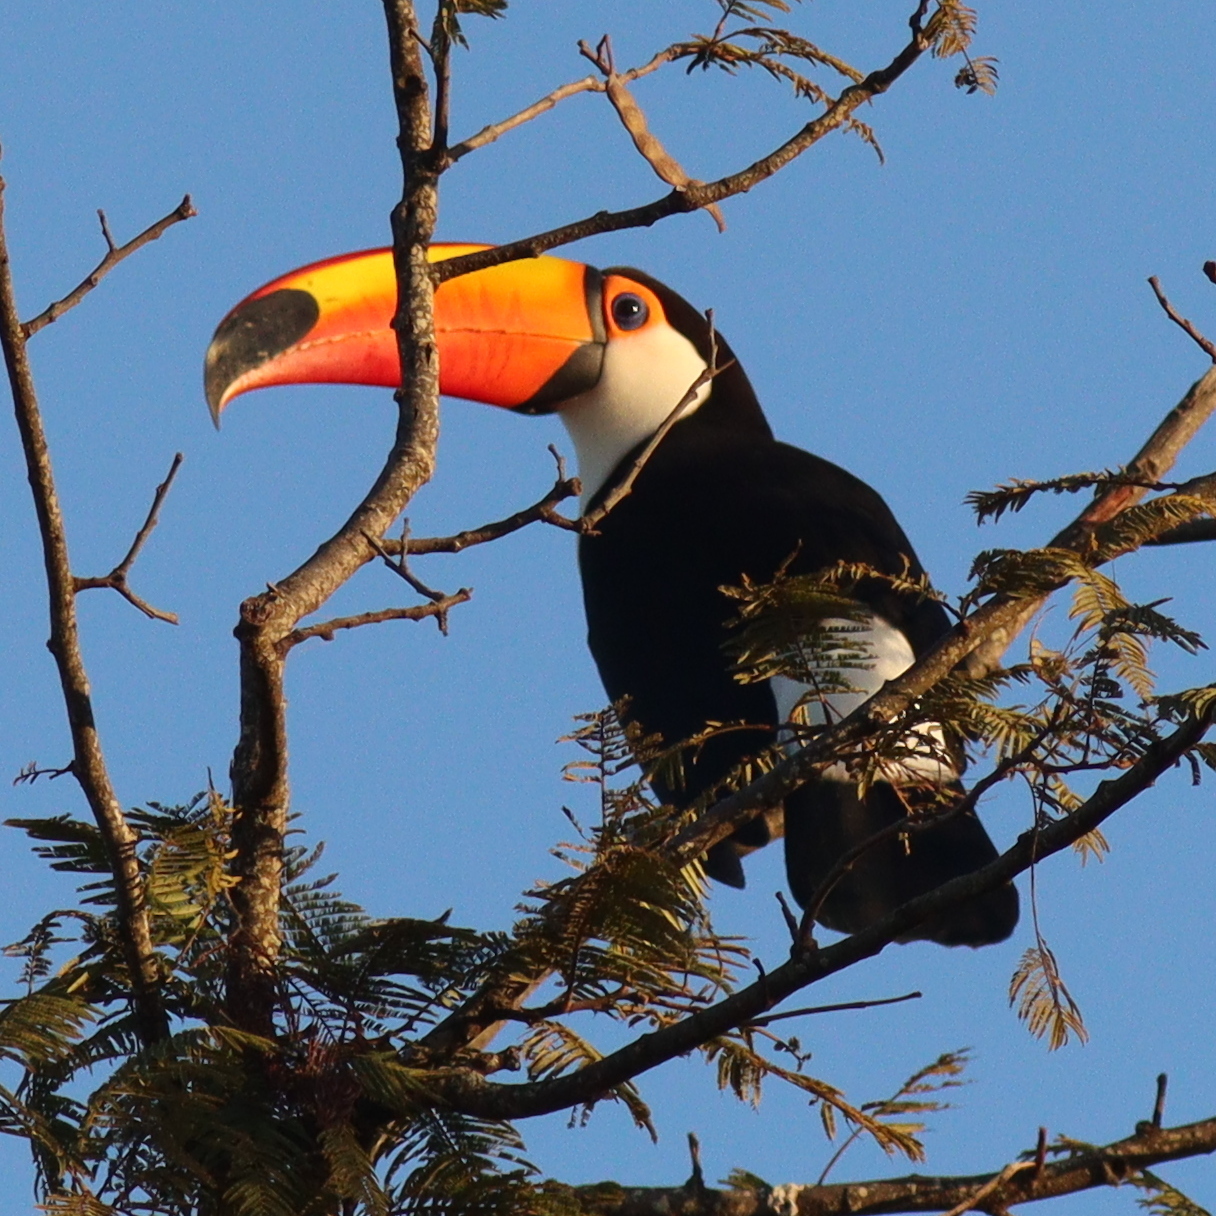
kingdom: Animalia
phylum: Chordata
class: Aves
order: Piciformes
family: Ramphastidae
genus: Ramphastos
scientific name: Ramphastos toco
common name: Toco toucan
